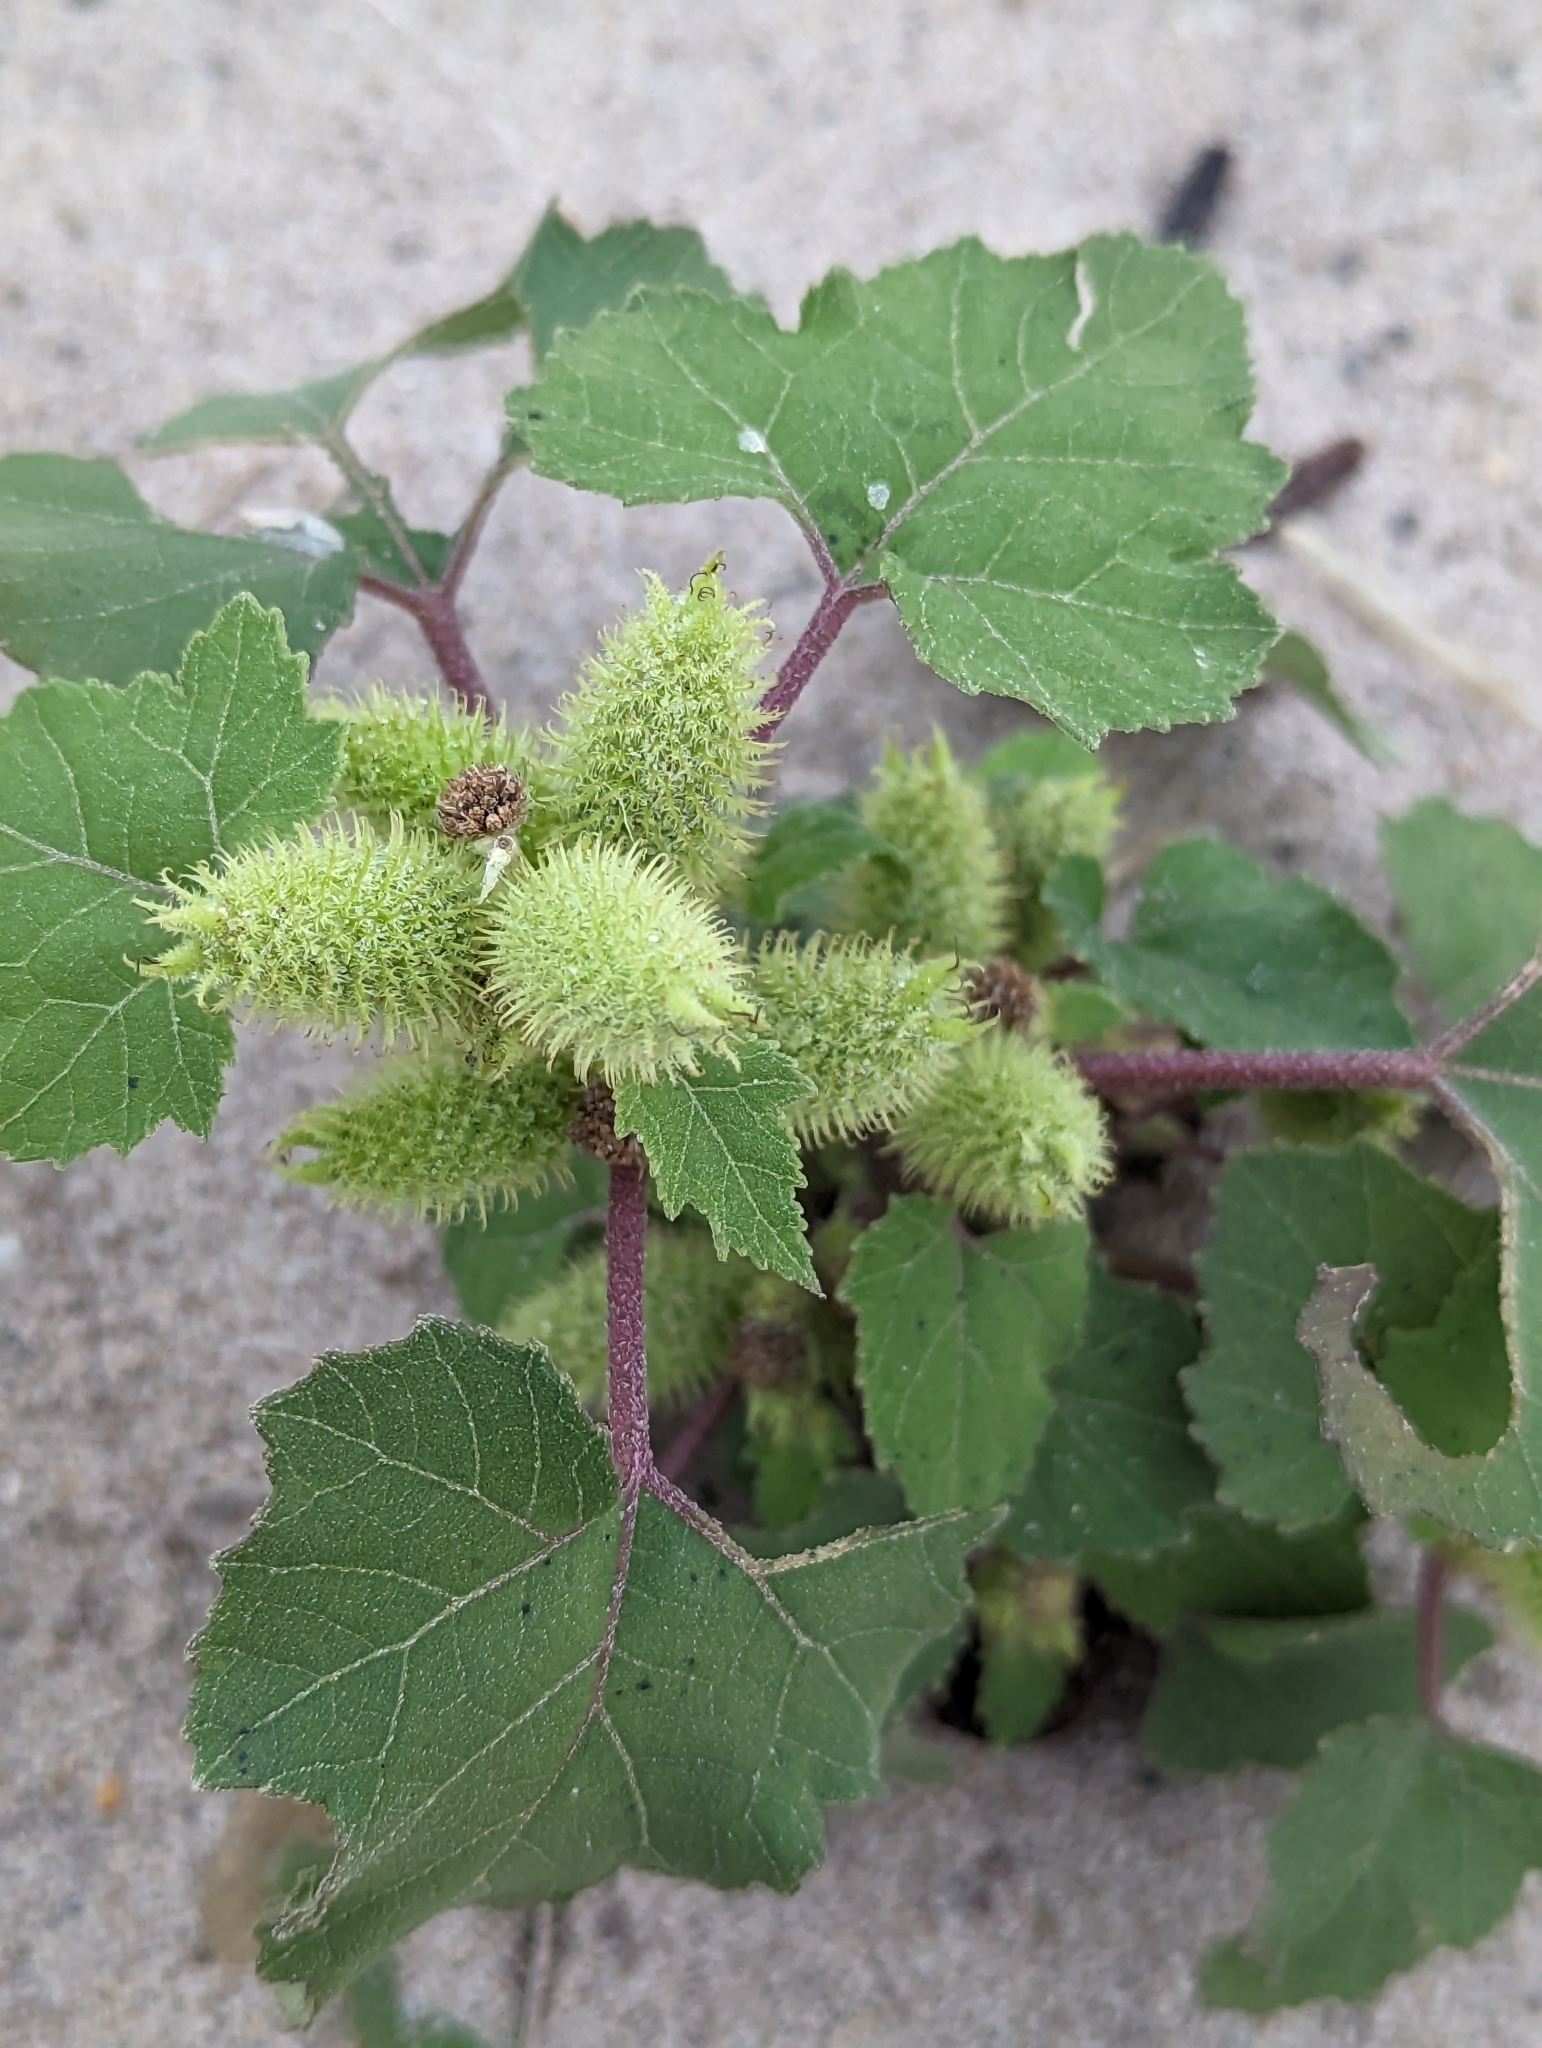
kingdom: Plantae
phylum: Tracheophyta
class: Magnoliopsida
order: Asterales
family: Asteraceae
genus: Xanthium
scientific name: Xanthium strumarium
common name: Rough cocklebur
